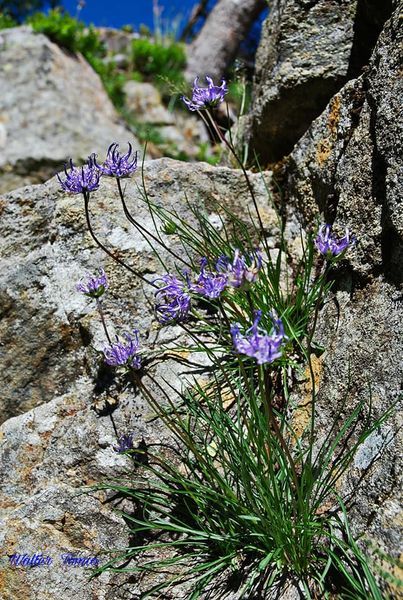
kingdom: Plantae
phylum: Tracheophyta
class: Magnoliopsida
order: Asterales
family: Campanulaceae
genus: Phyteuma
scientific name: Phyteuma hemisphaericum
